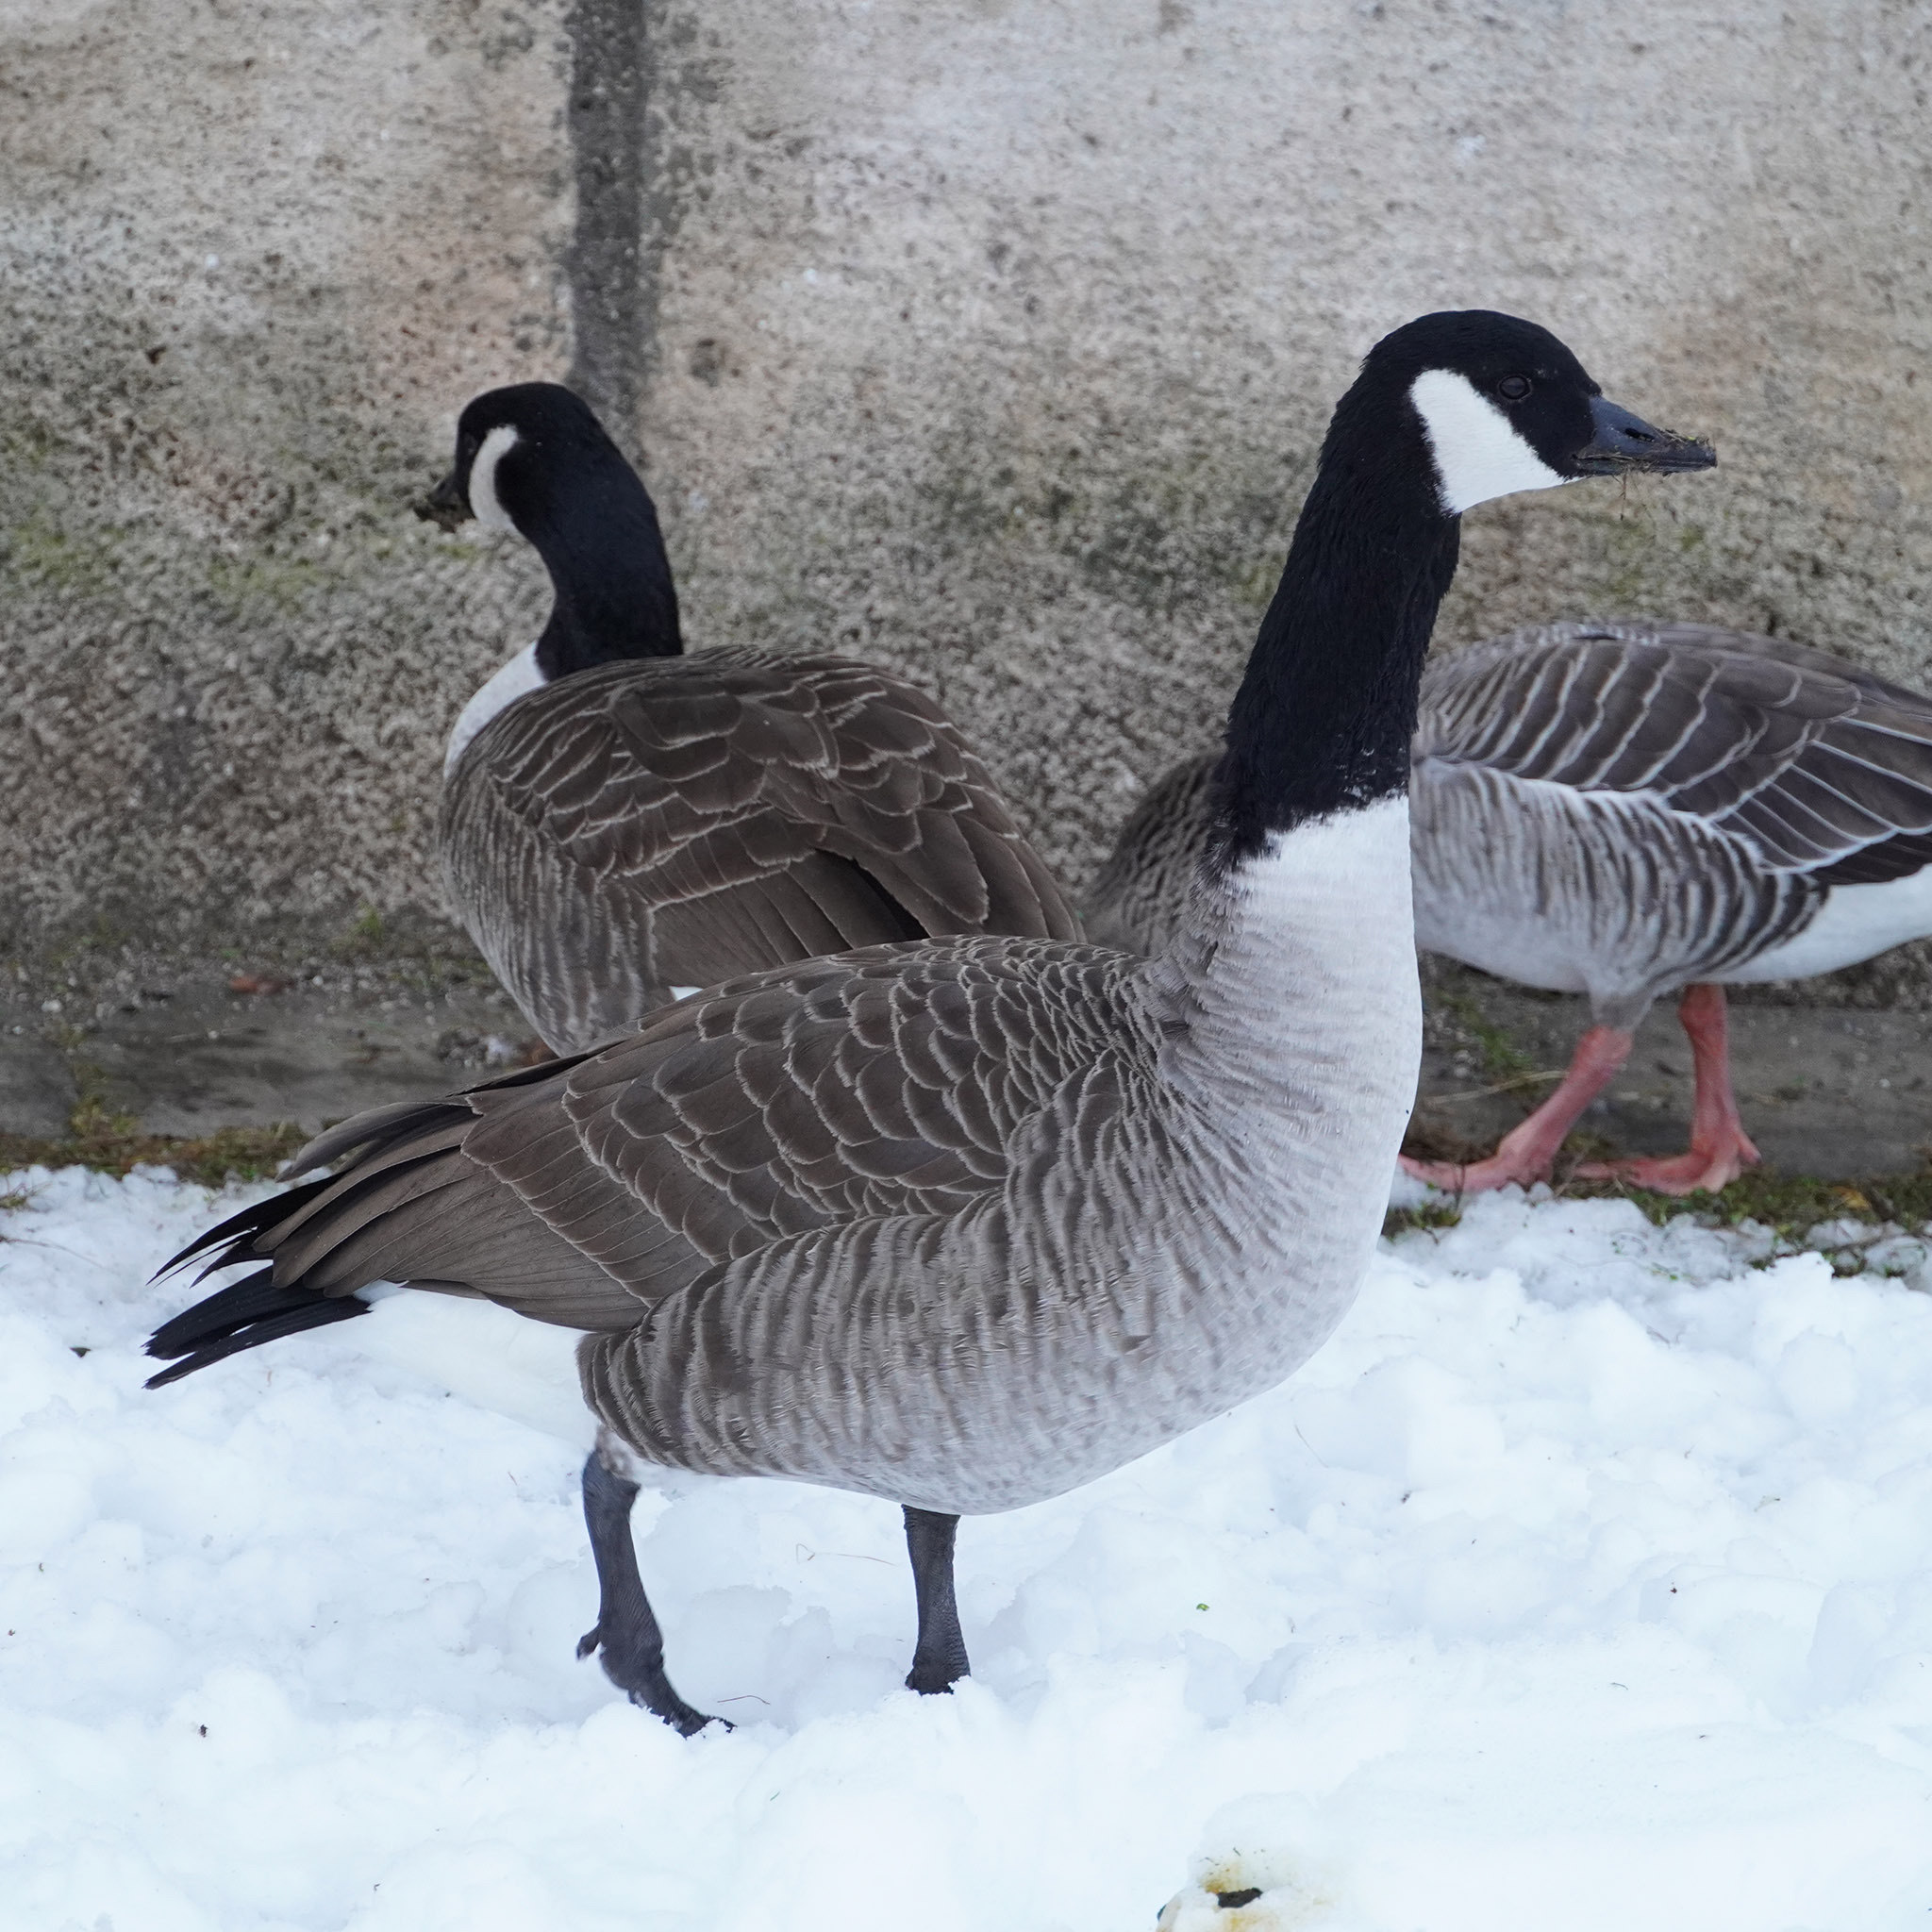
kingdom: Animalia
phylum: Chordata
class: Aves
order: Anseriformes
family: Anatidae
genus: Branta
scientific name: Branta canadensis
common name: Canada goose
